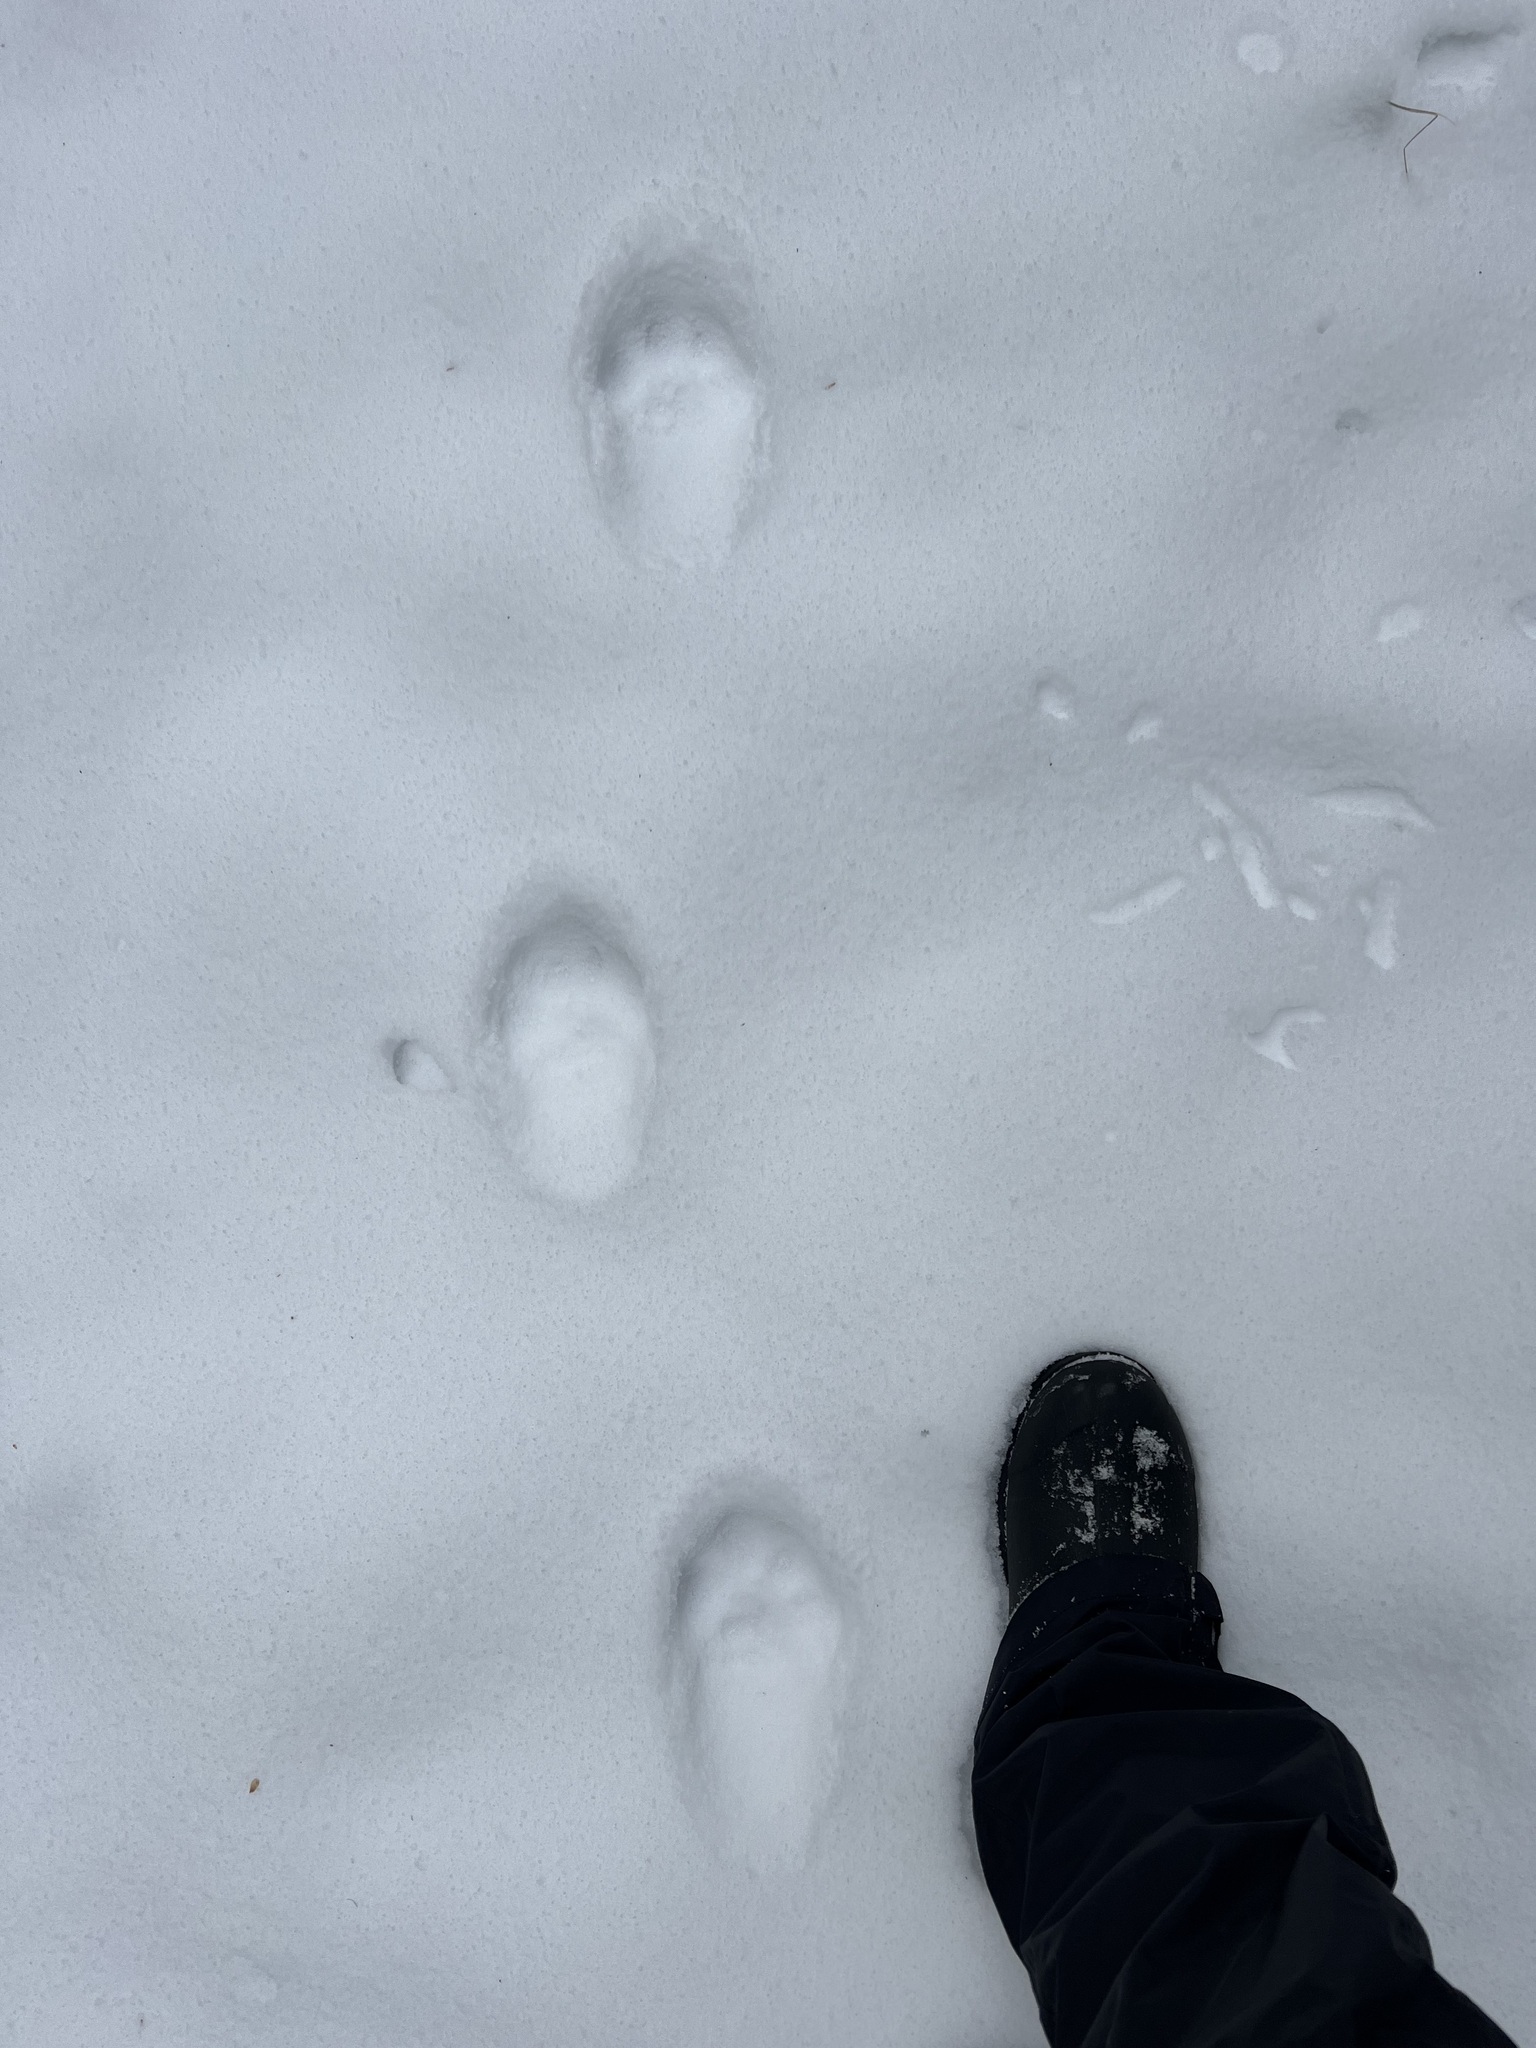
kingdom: Animalia
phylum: Chordata
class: Mammalia
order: Carnivora
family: Felidae
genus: Lynx
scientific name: Lynx canadensis
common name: Canadian lynx
